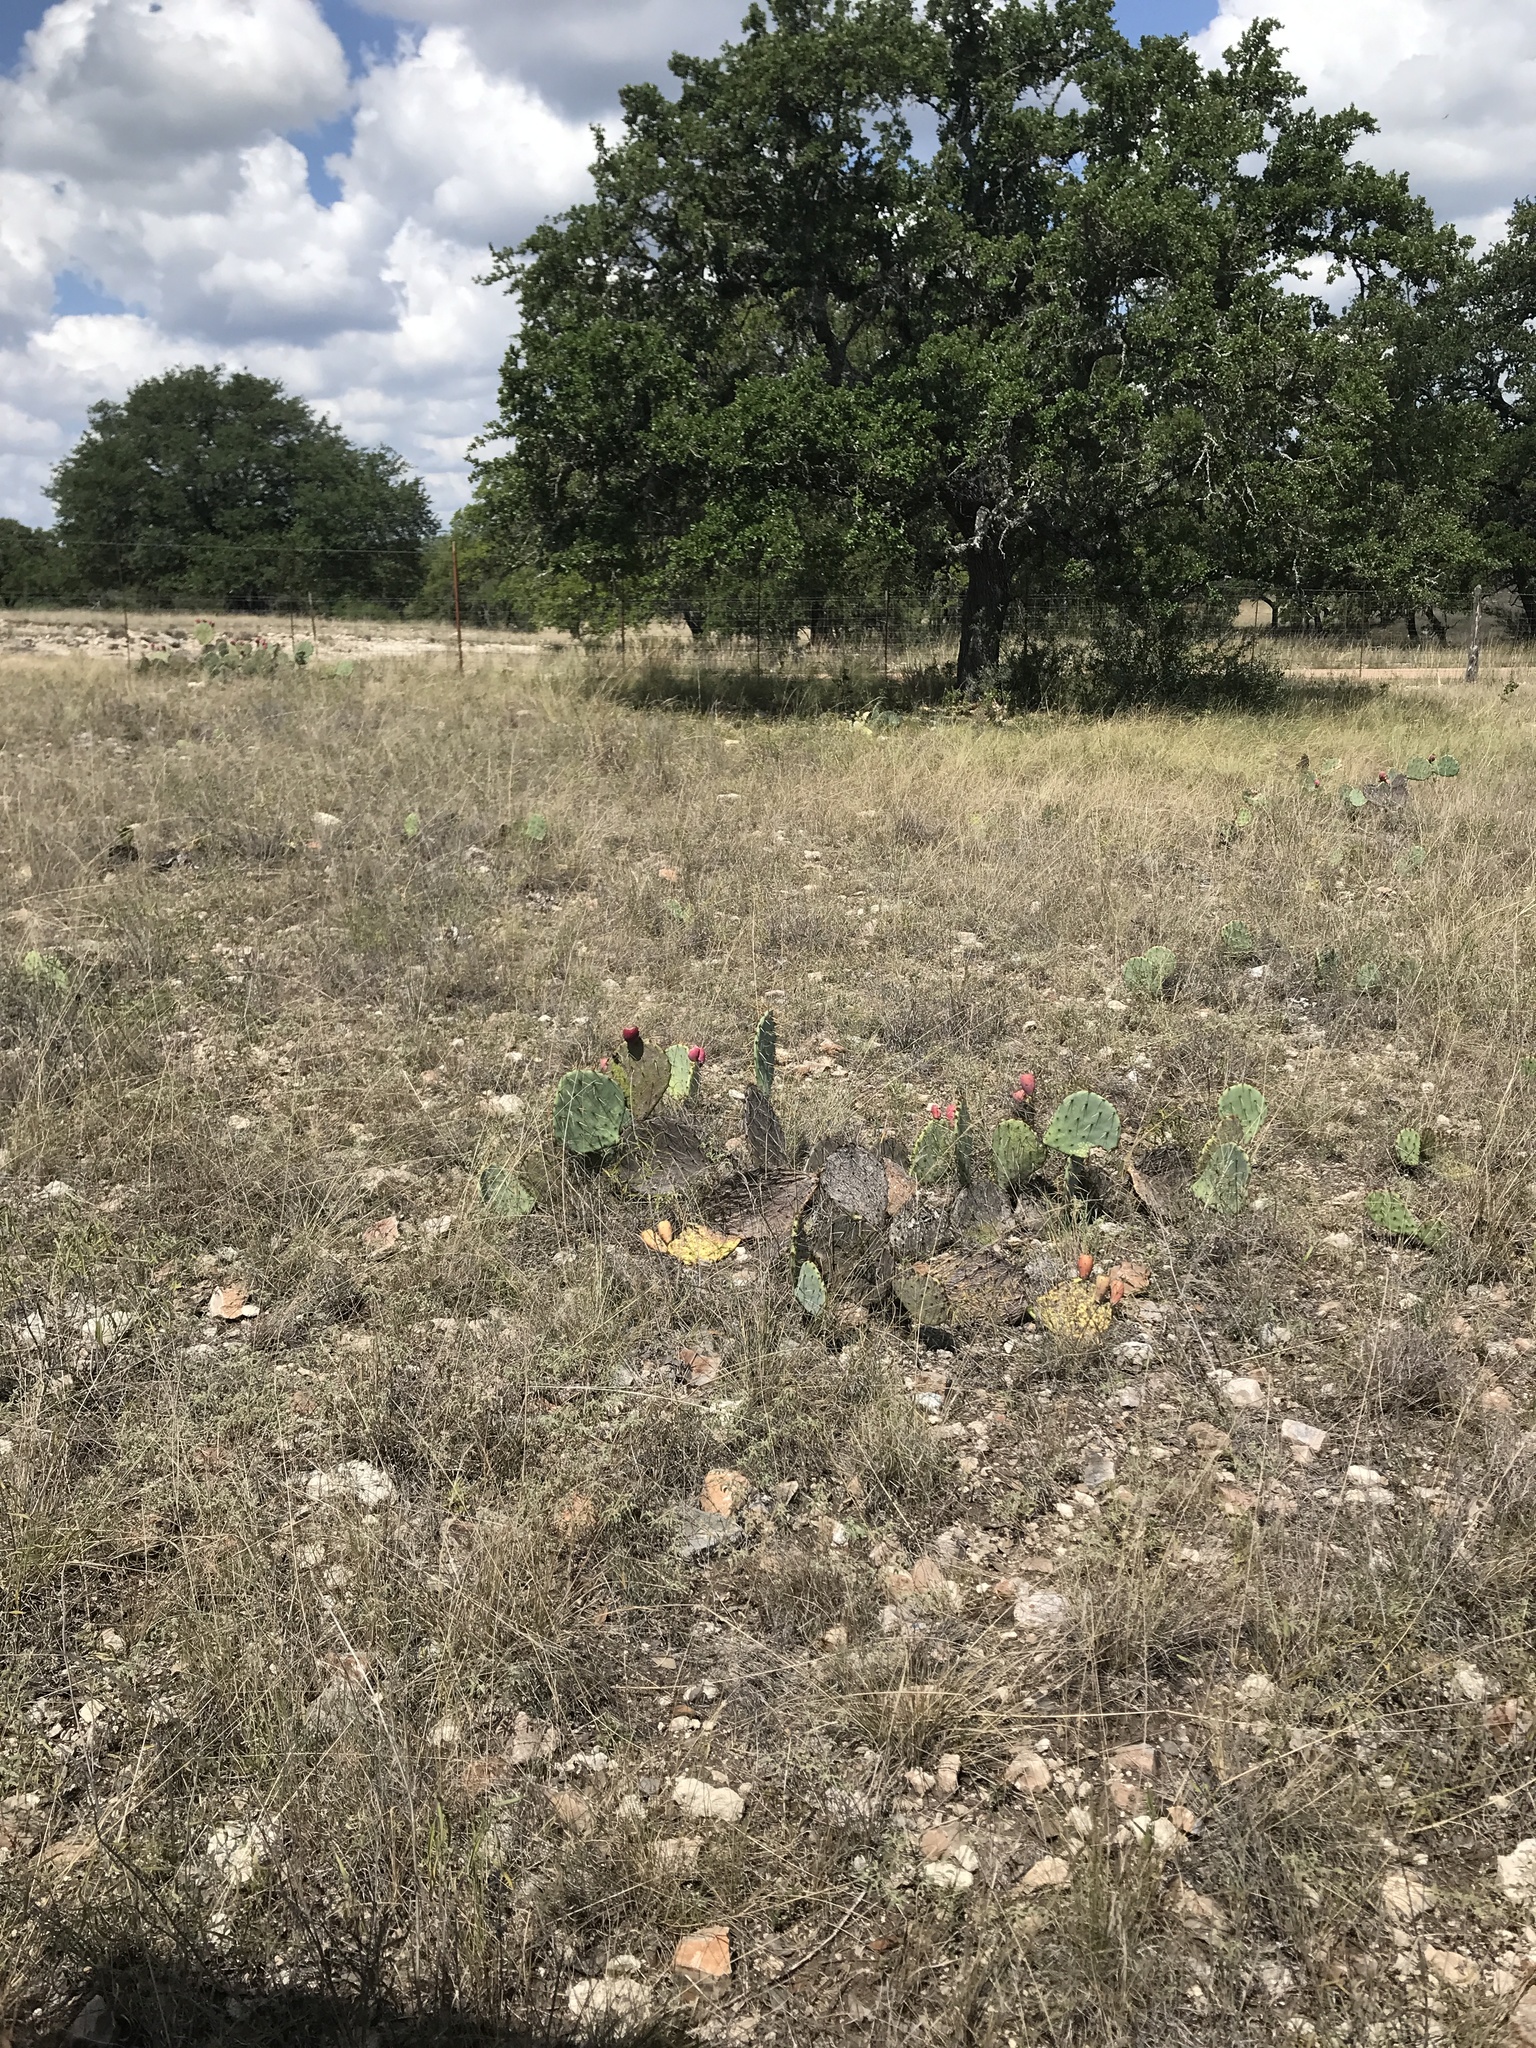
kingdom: Plantae
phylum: Tracheophyta
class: Magnoliopsida
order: Caryophyllales
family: Cactaceae
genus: Opuntia
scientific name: Opuntia macrorhiza
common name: Grassland pricklypear
